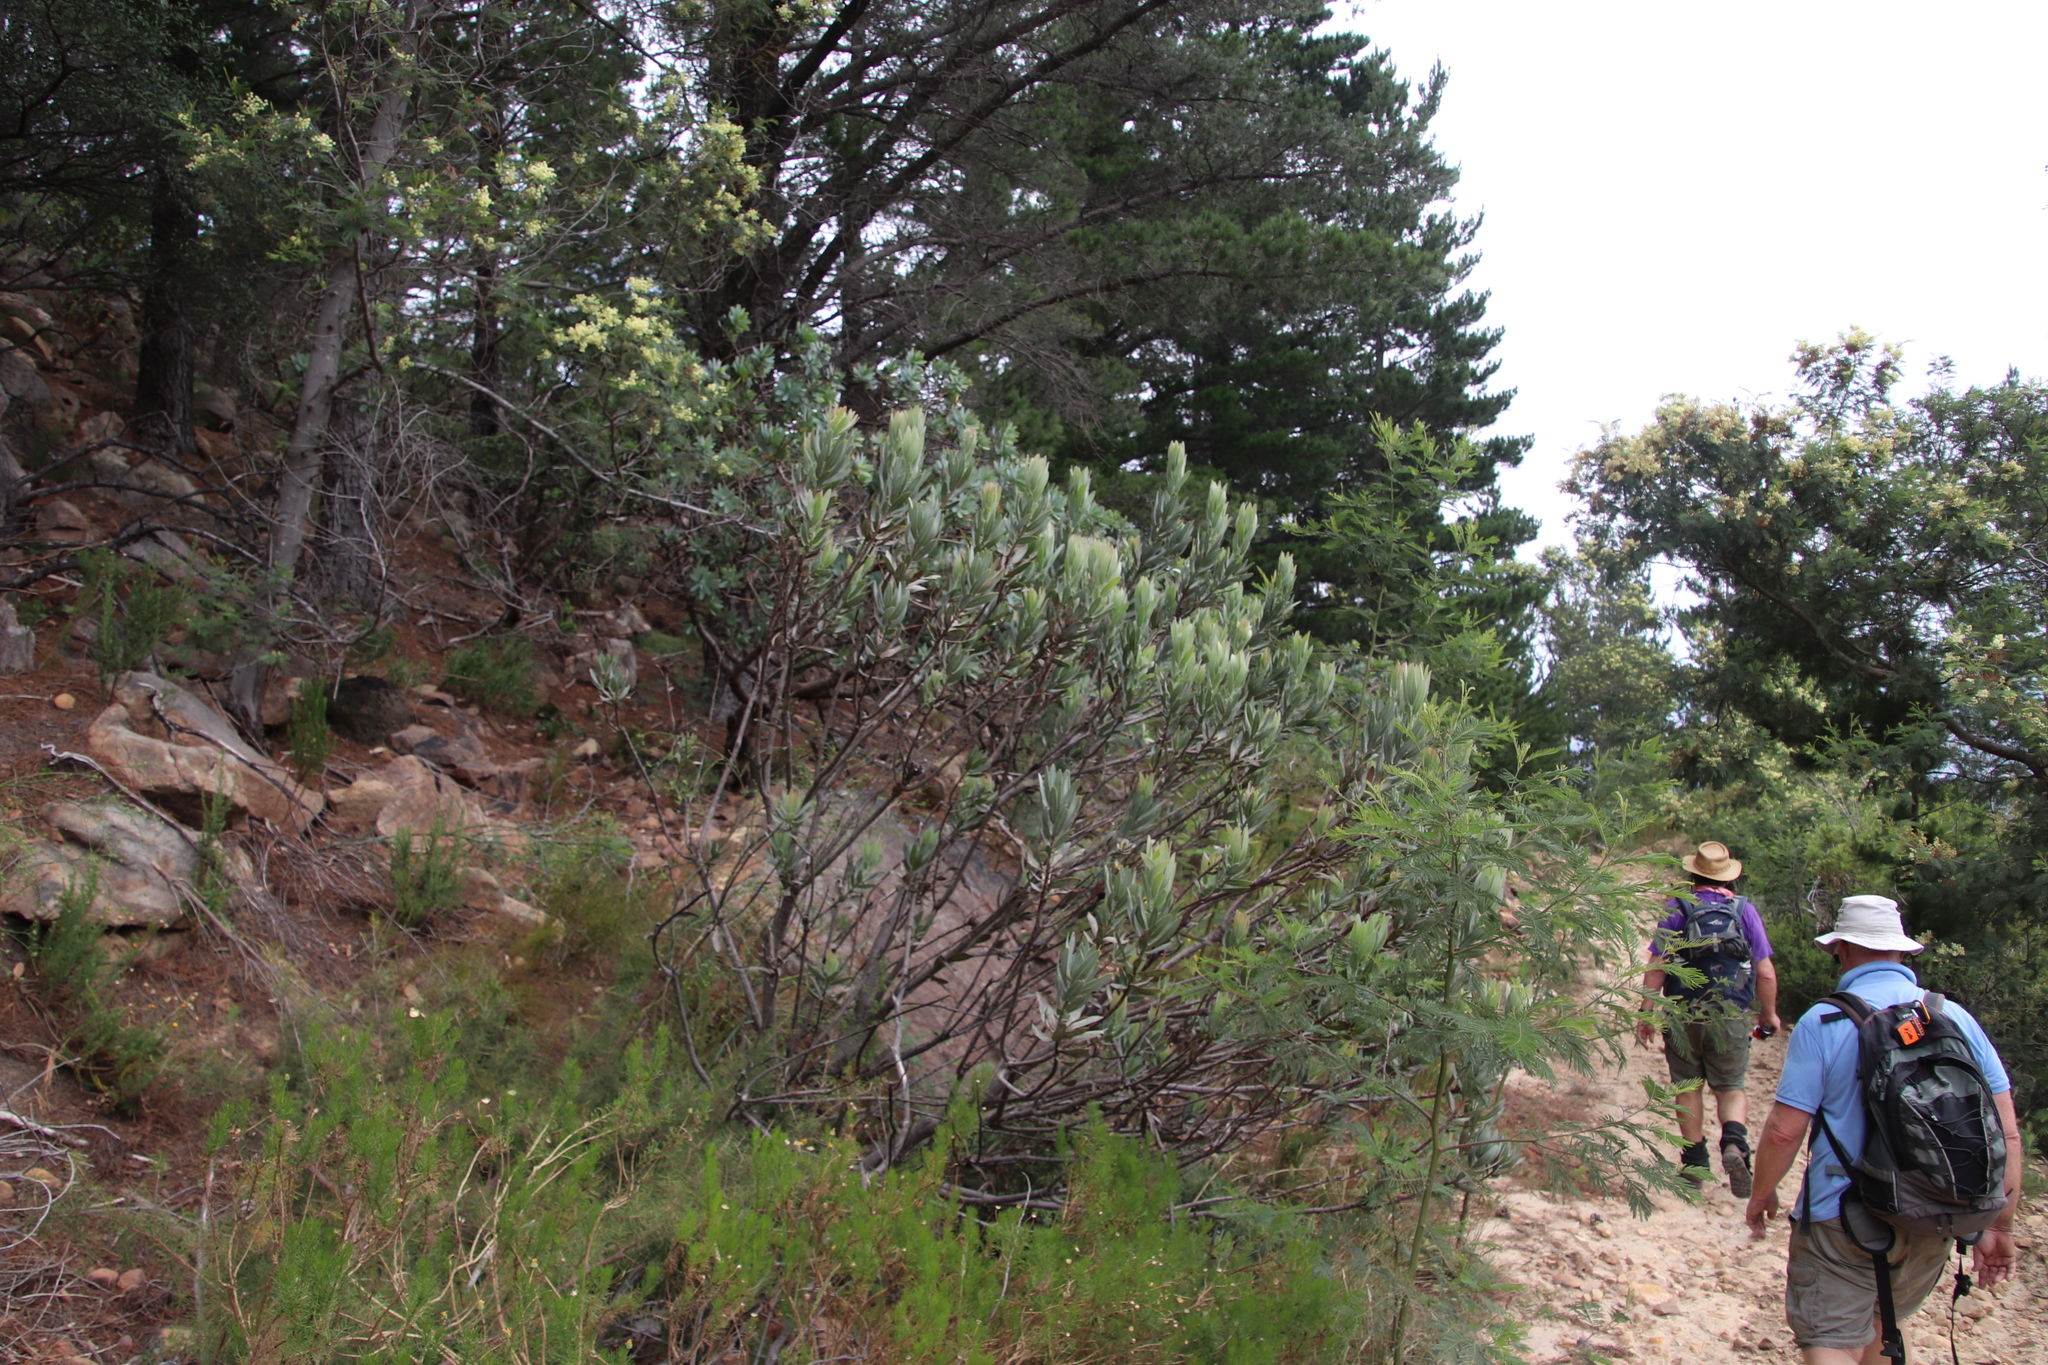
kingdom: Plantae
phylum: Tracheophyta
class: Magnoliopsida
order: Proteales
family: Proteaceae
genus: Protea
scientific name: Protea laurifolia
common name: Grey-leaf sugarbsh
